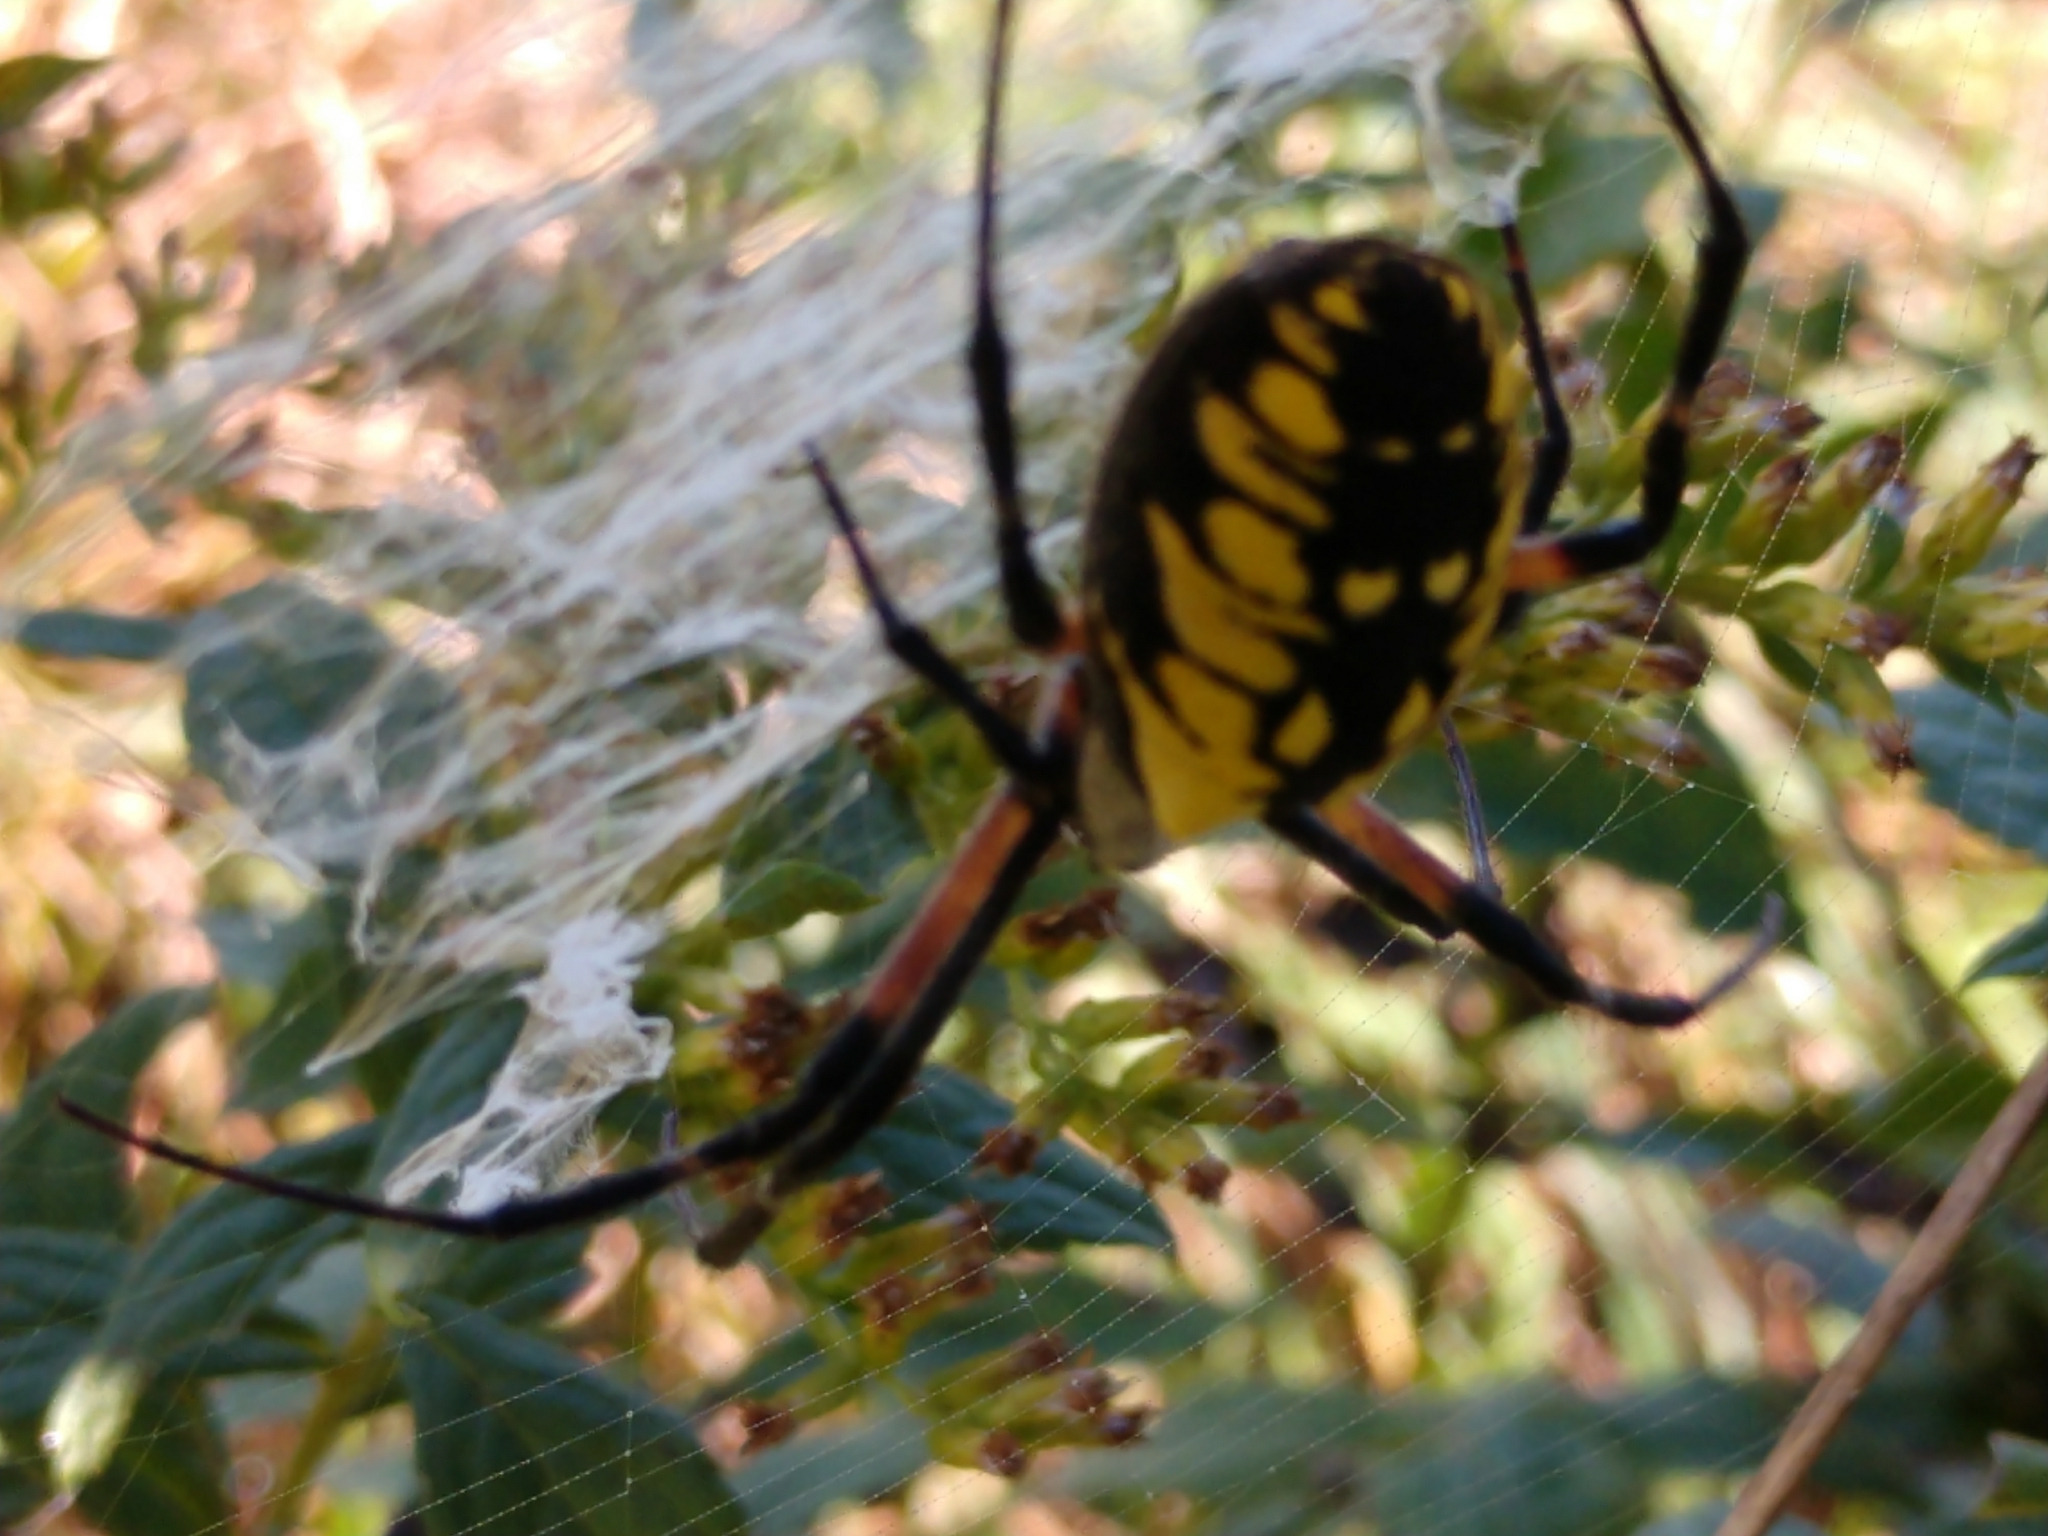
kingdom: Animalia
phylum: Arthropoda
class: Arachnida
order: Araneae
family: Araneidae
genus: Argiope
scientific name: Argiope aurantia
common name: Orb weavers
